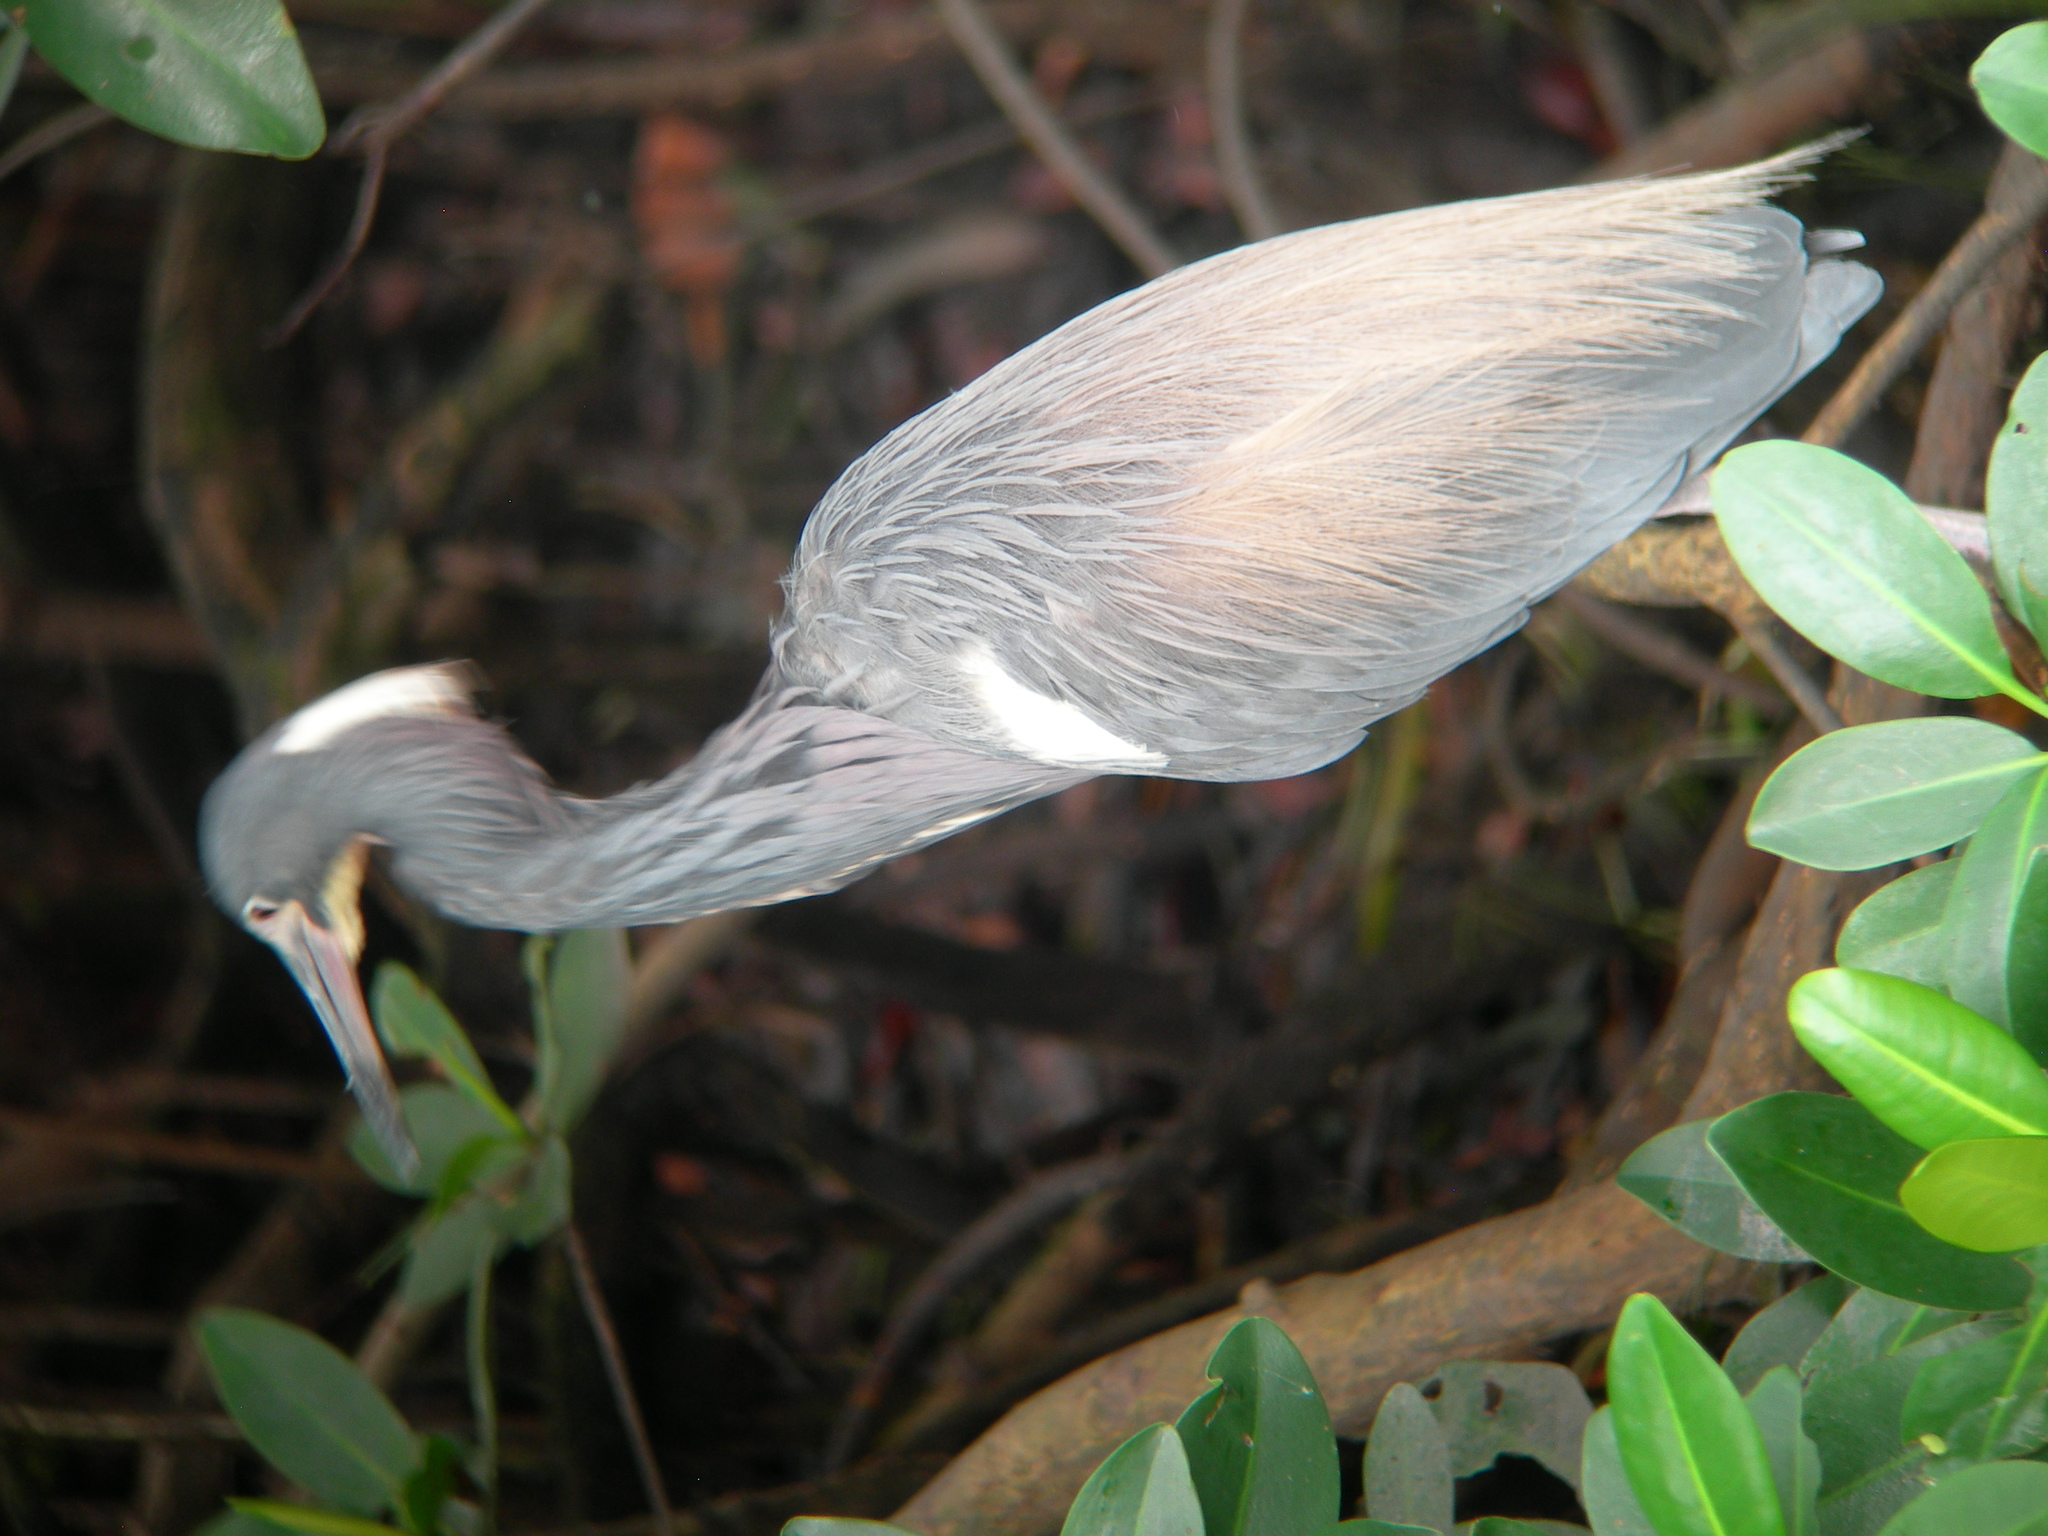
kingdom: Animalia
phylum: Chordata
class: Aves
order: Pelecaniformes
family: Ardeidae
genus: Egretta
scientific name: Egretta tricolor
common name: Tricolored heron
